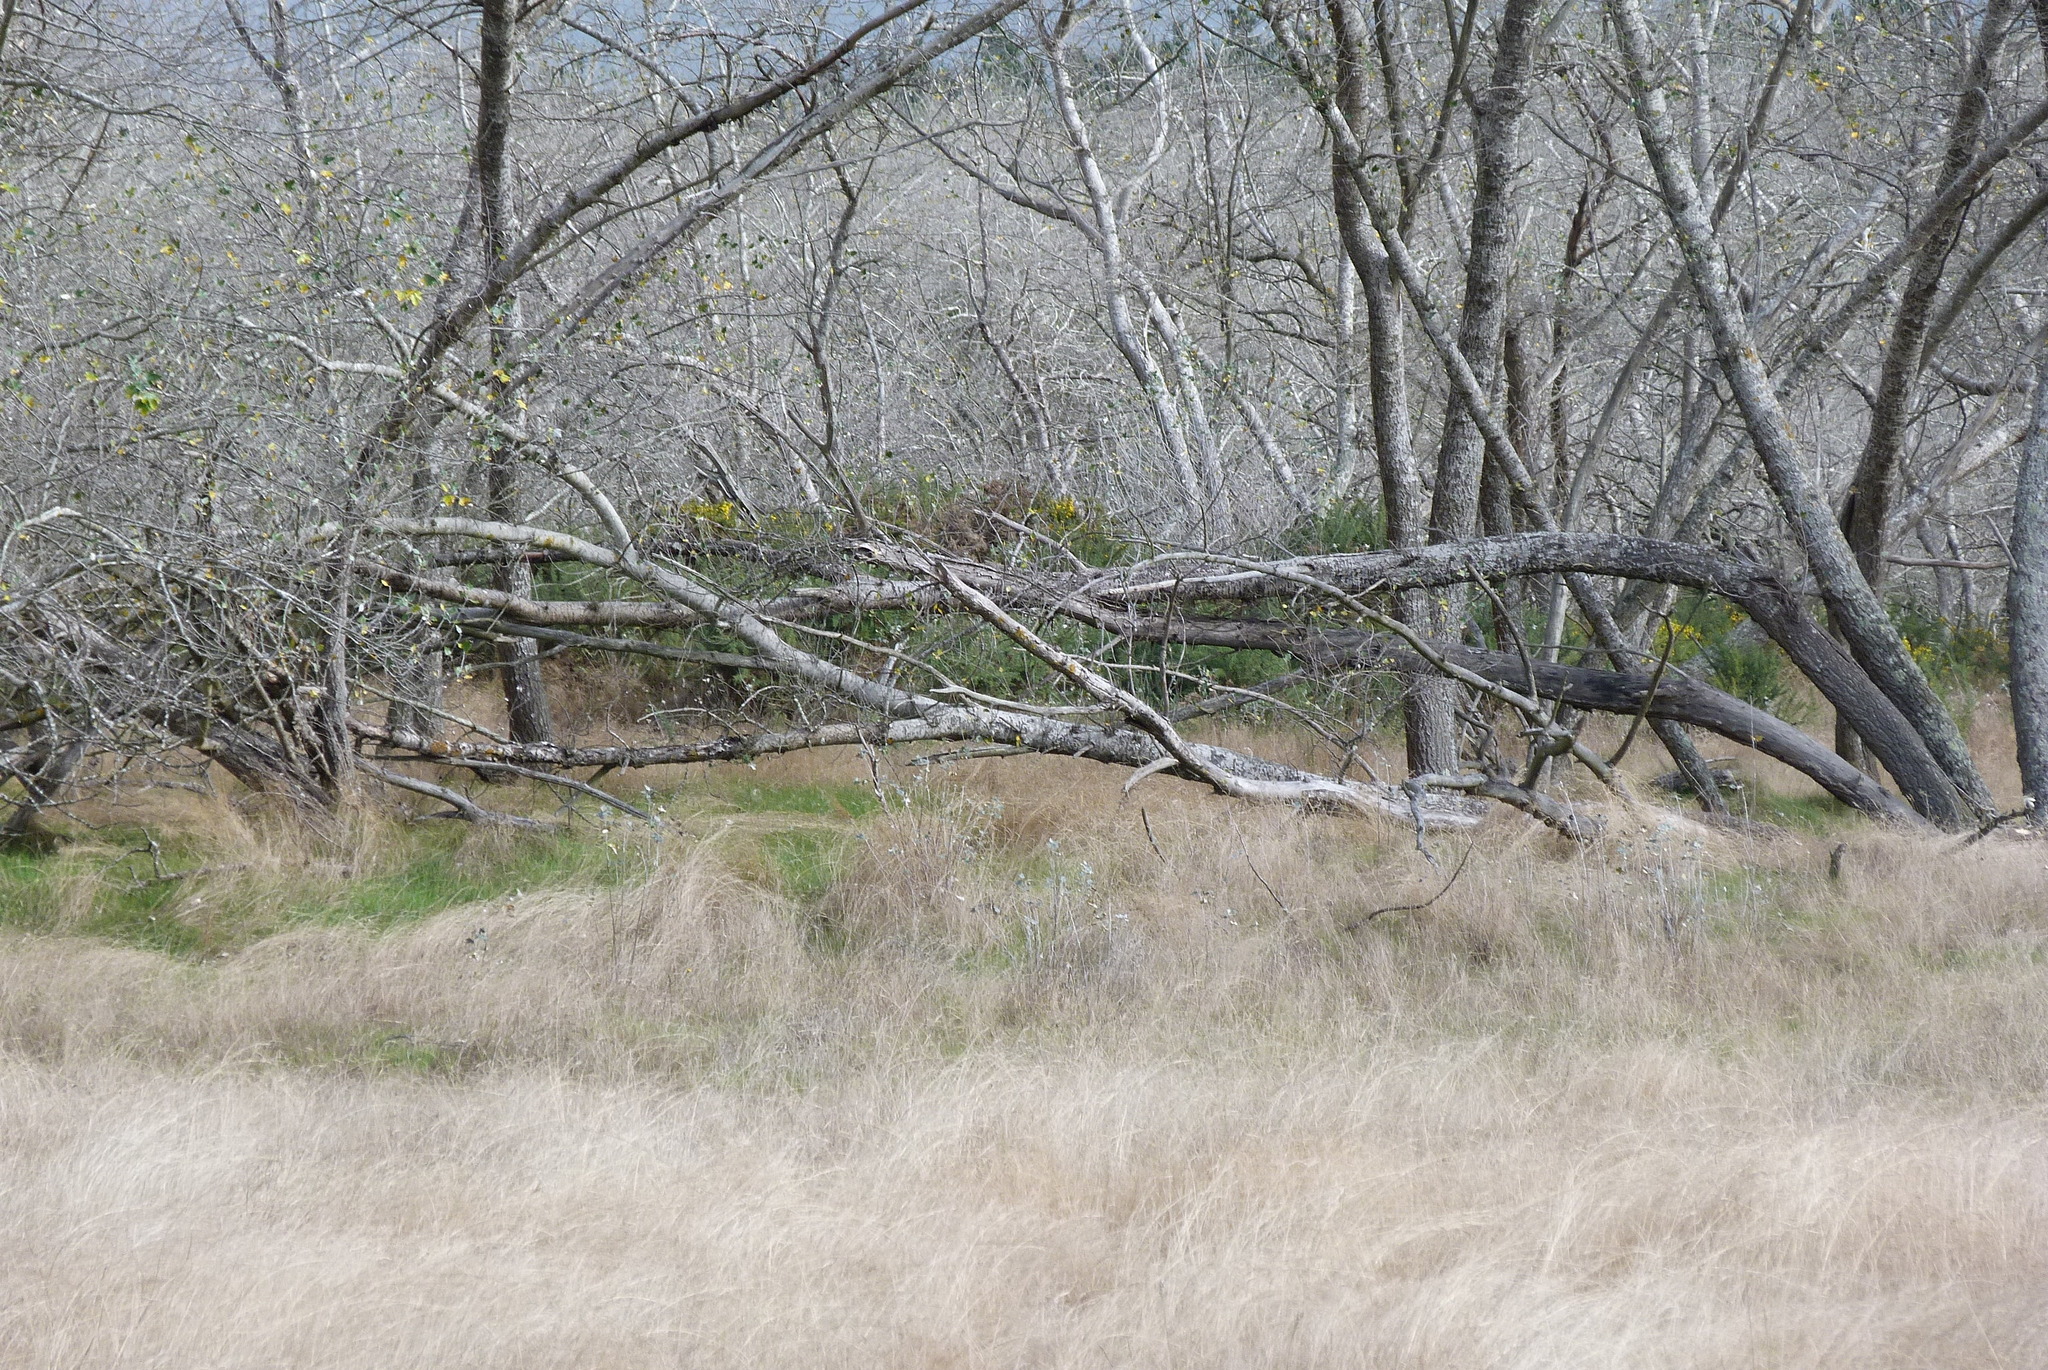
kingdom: Animalia
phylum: Chordata
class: Aves
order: Galliformes
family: Phasianidae
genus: Phasianus
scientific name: Phasianus colchicus
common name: Common pheasant
